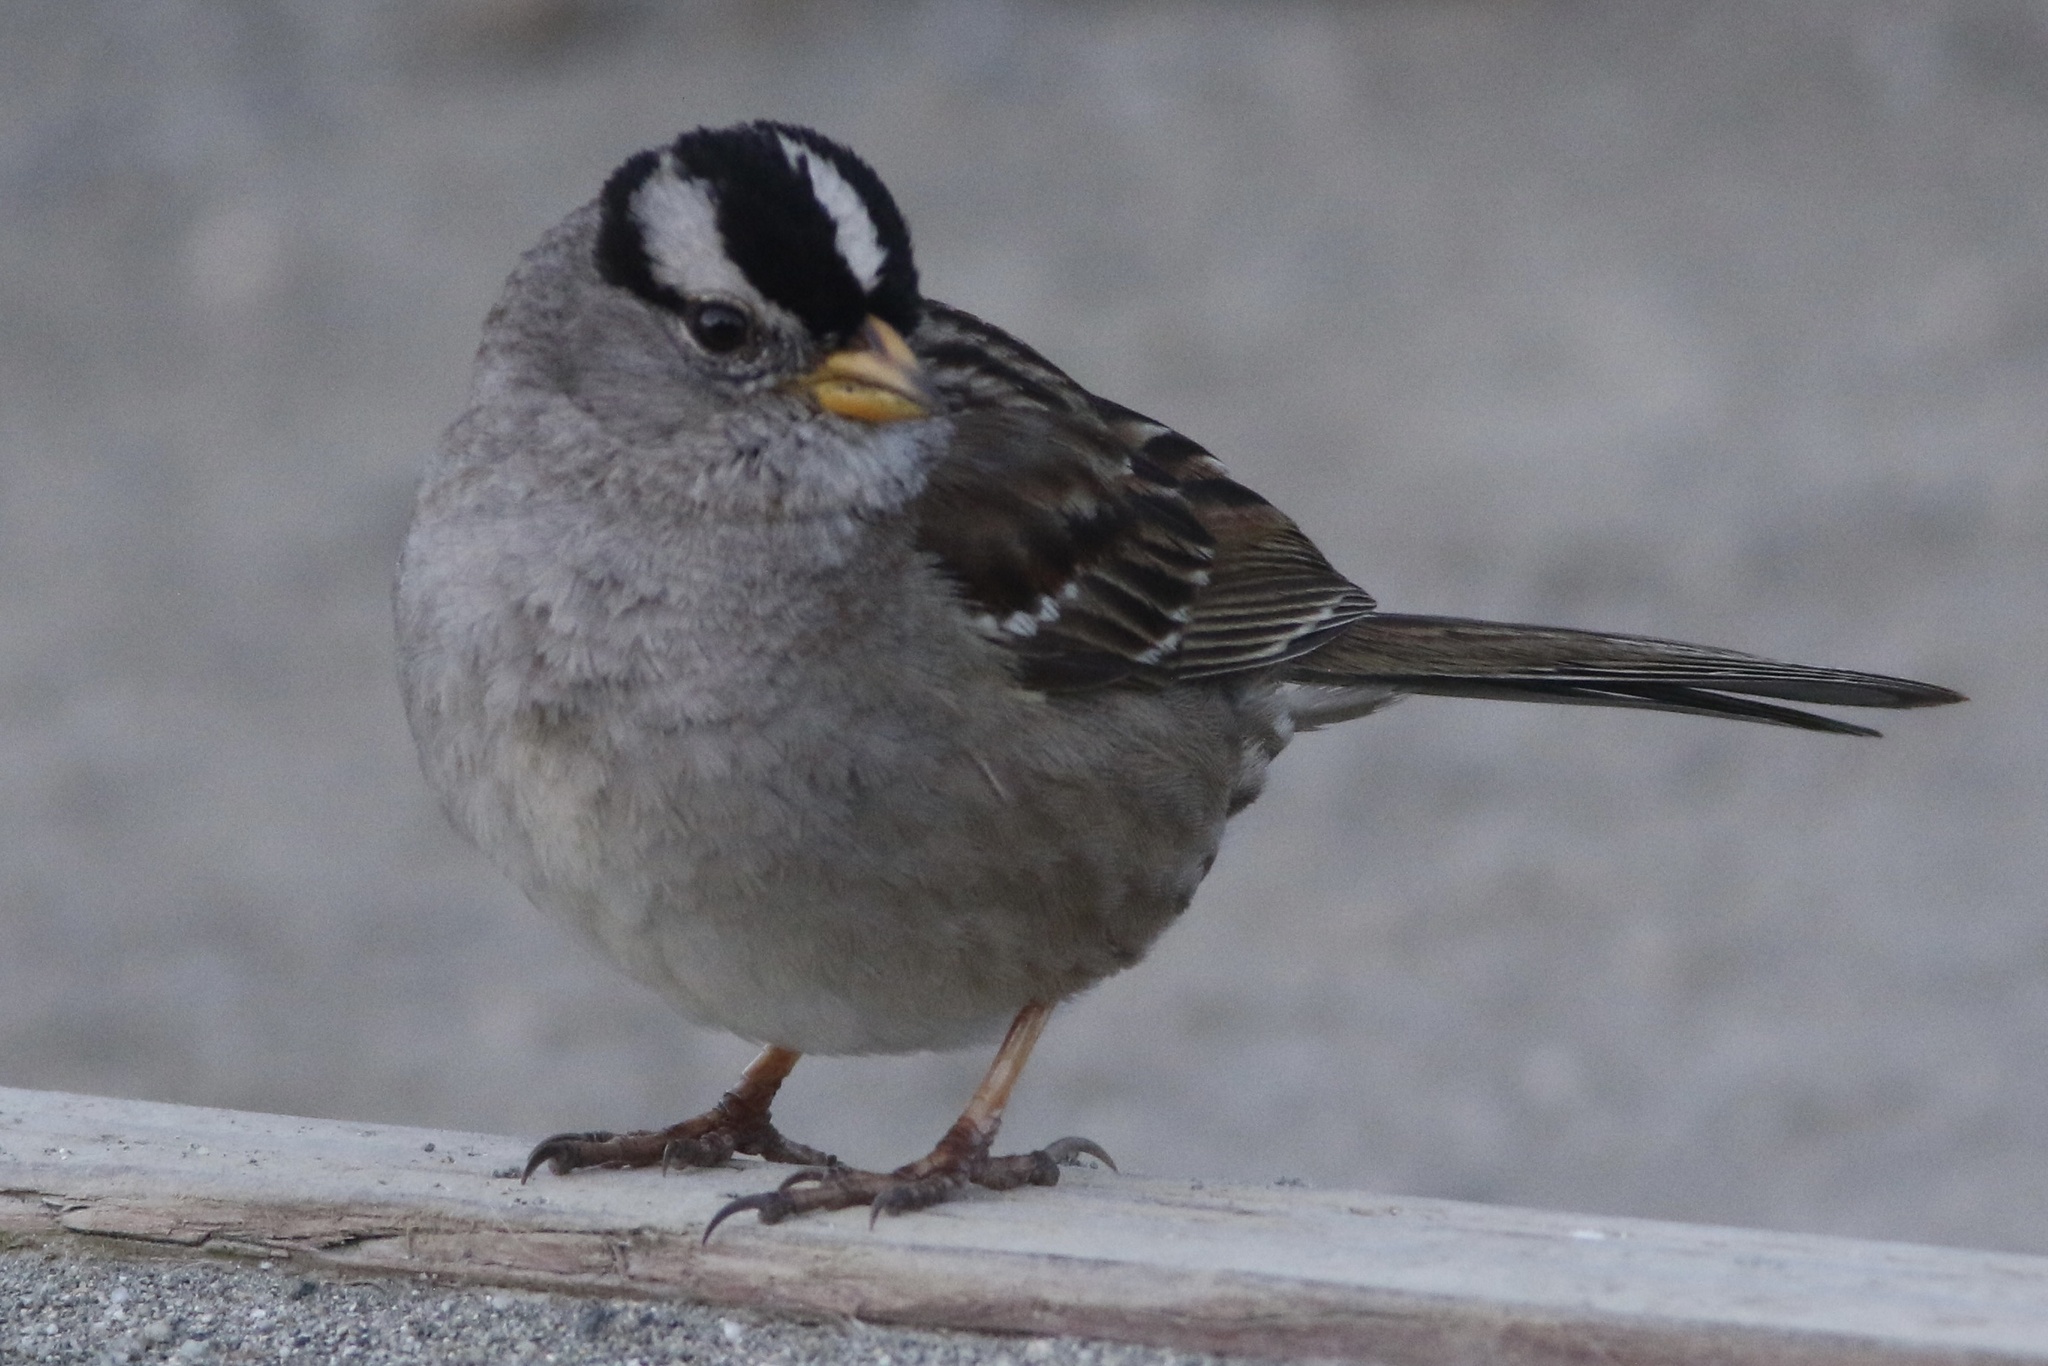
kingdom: Animalia
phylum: Chordata
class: Aves
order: Passeriformes
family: Passerellidae
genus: Zonotrichia
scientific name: Zonotrichia leucophrys
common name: White-crowned sparrow
